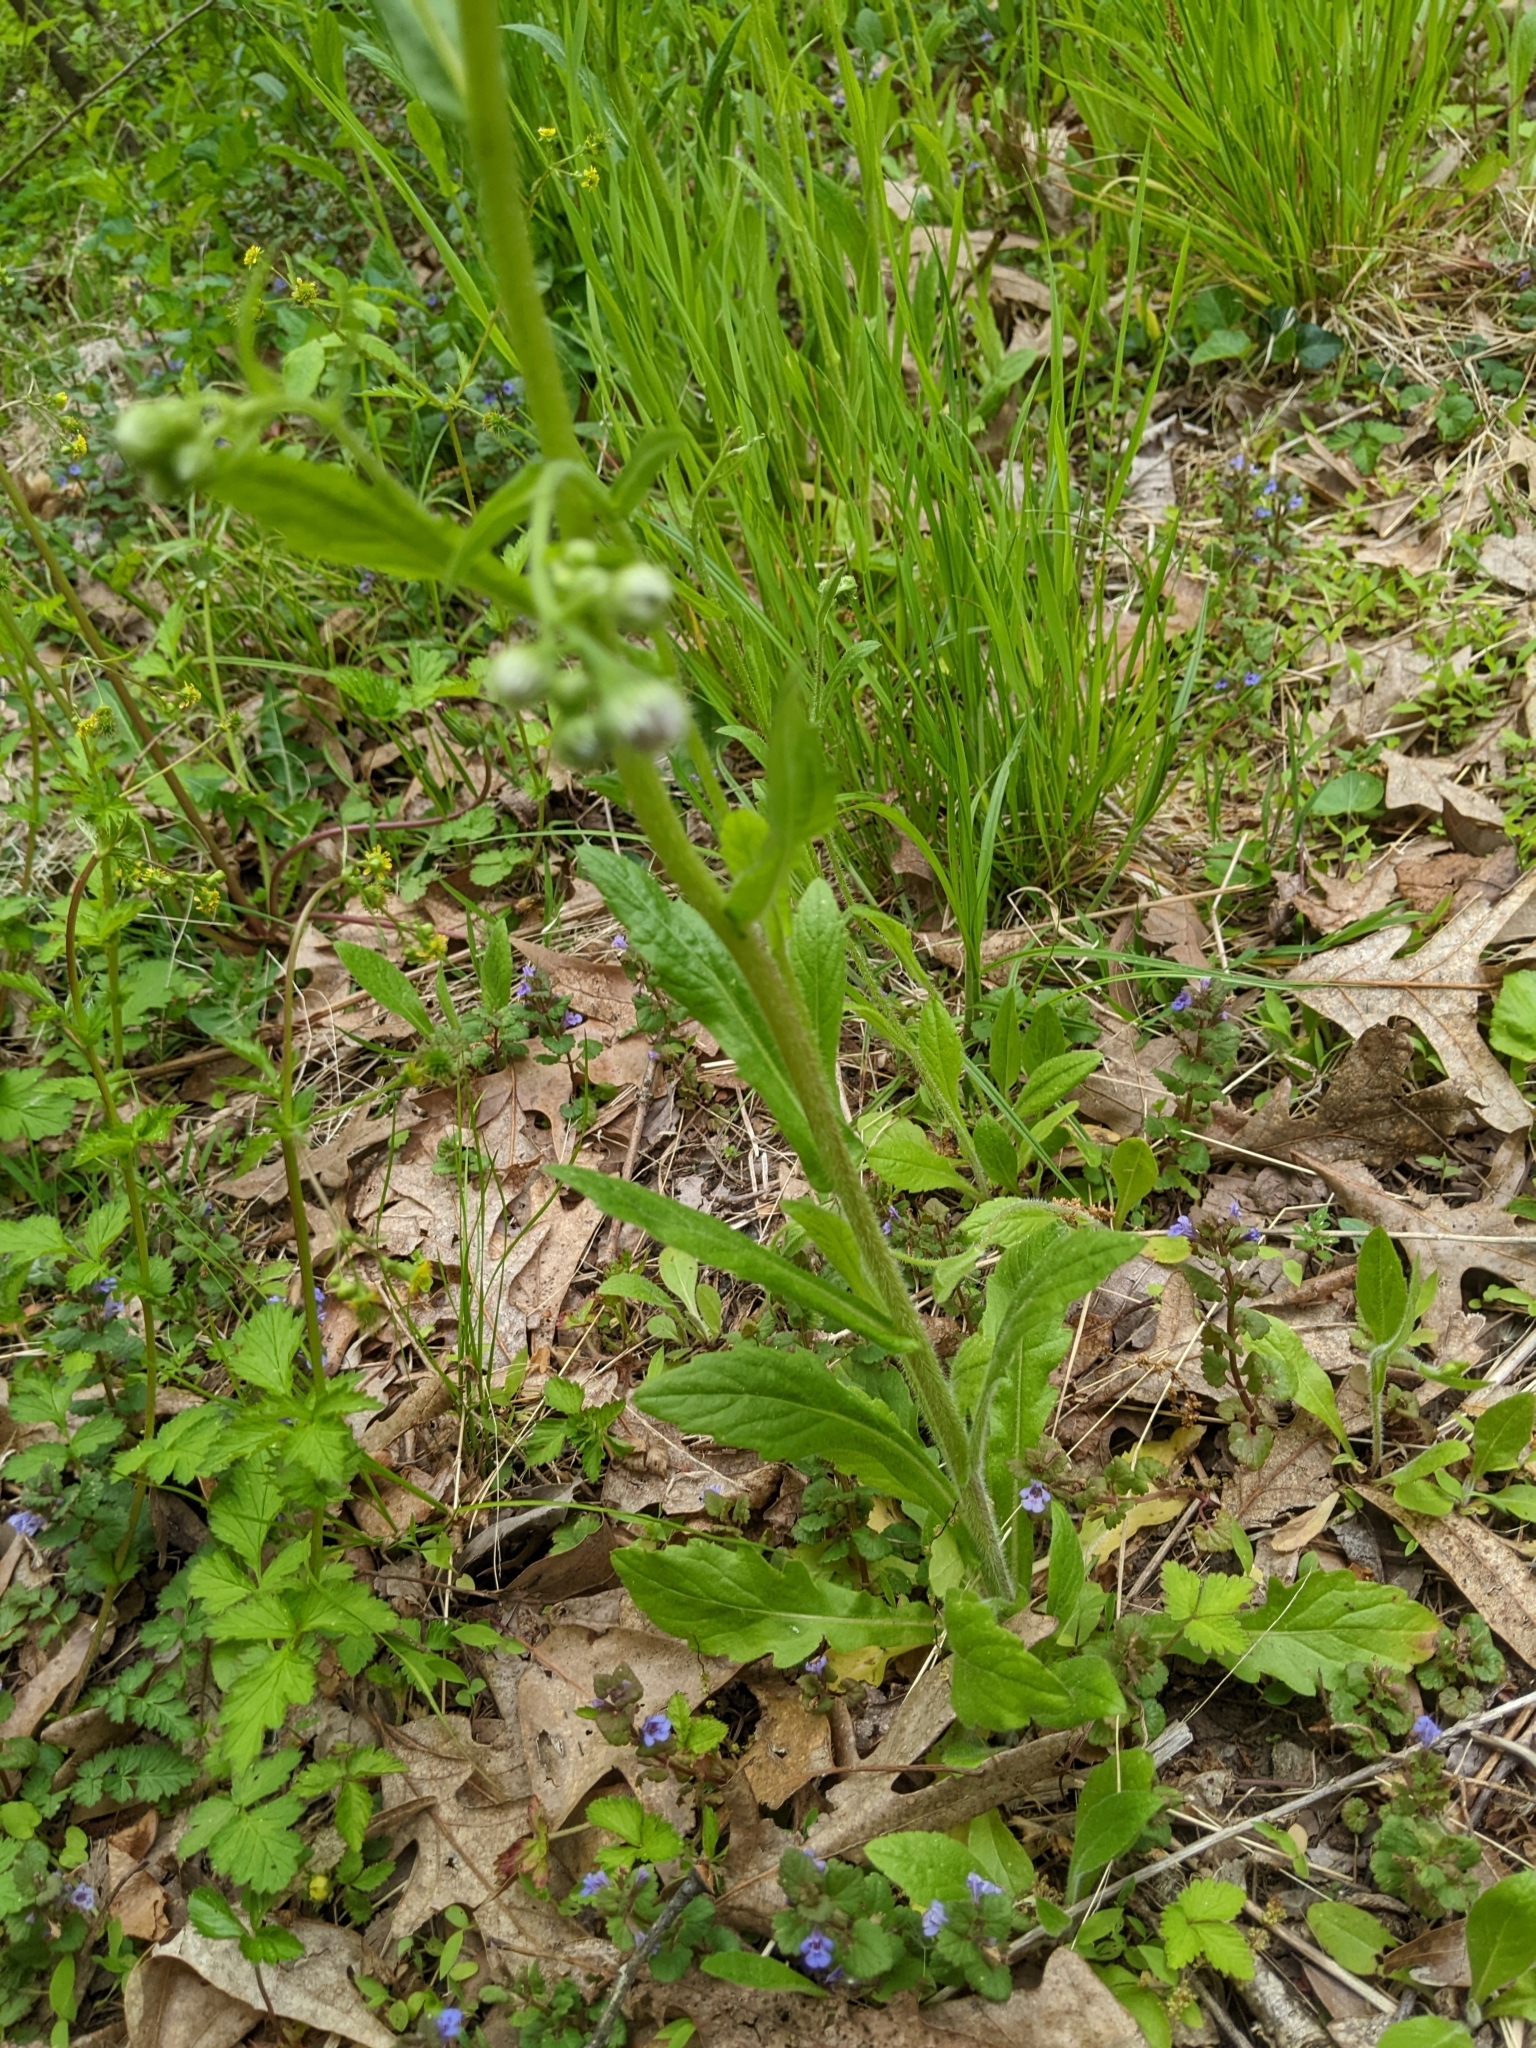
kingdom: Plantae
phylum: Tracheophyta
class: Magnoliopsida
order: Asterales
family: Asteraceae
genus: Erigeron
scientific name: Erigeron annuus
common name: Tall fleabane
